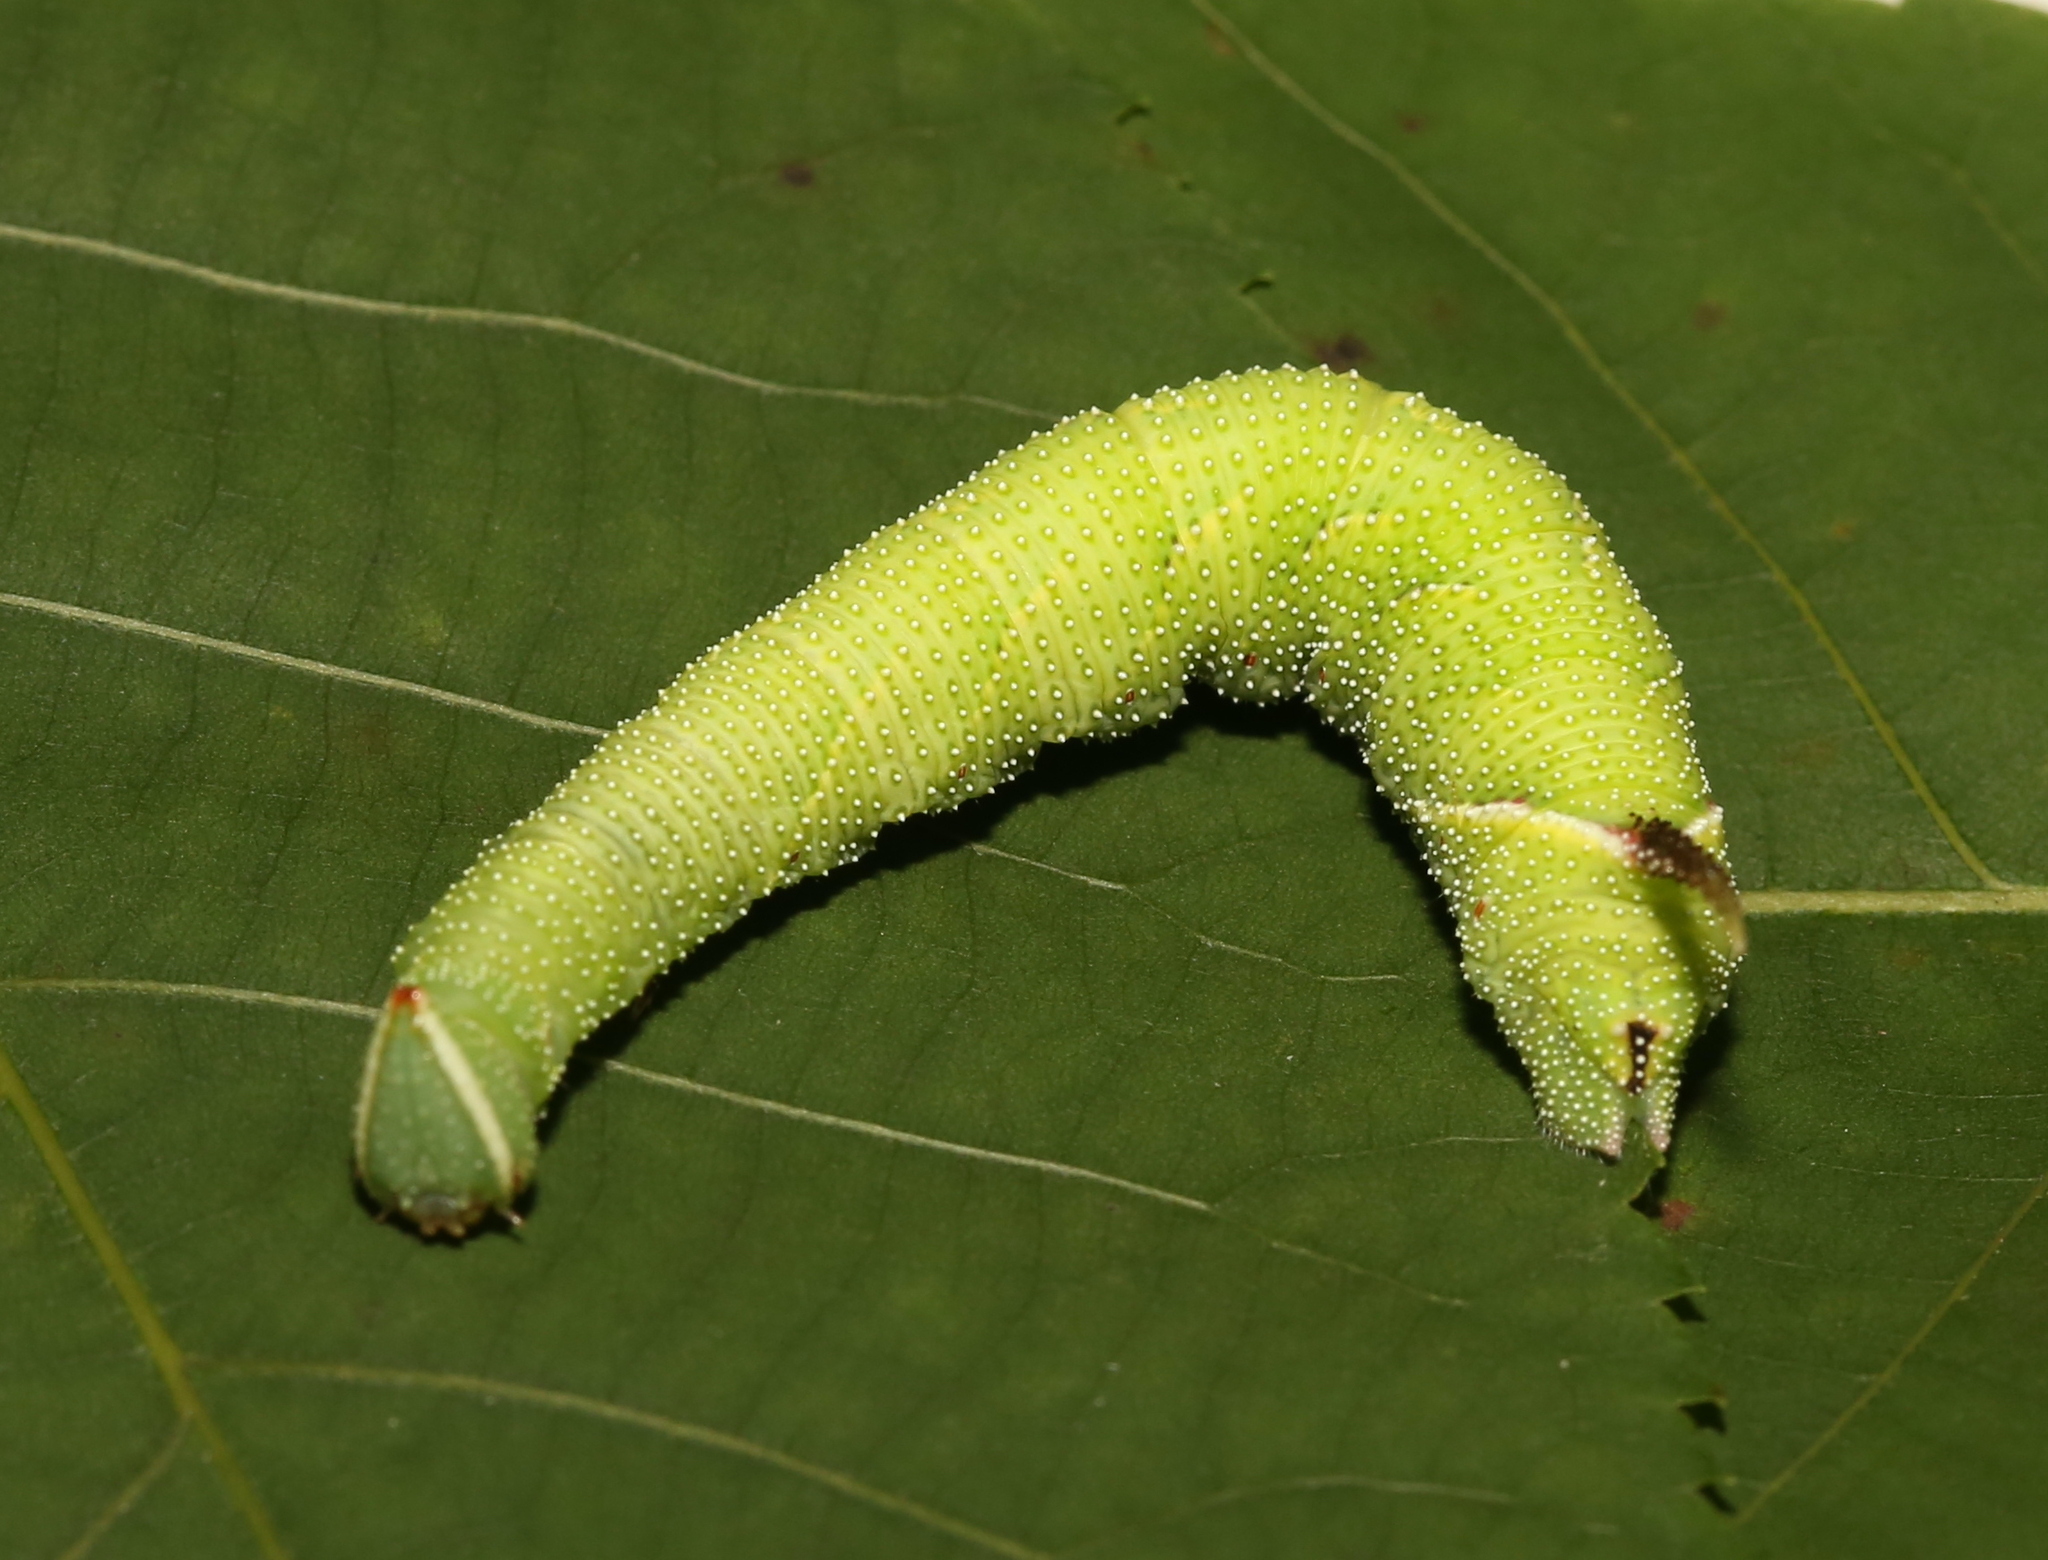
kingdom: Animalia
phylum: Arthropoda
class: Insecta
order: Lepidoptera
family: Sphingidae
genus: Amorpha
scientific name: Amorpha juglandis
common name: Walnut sphinx
